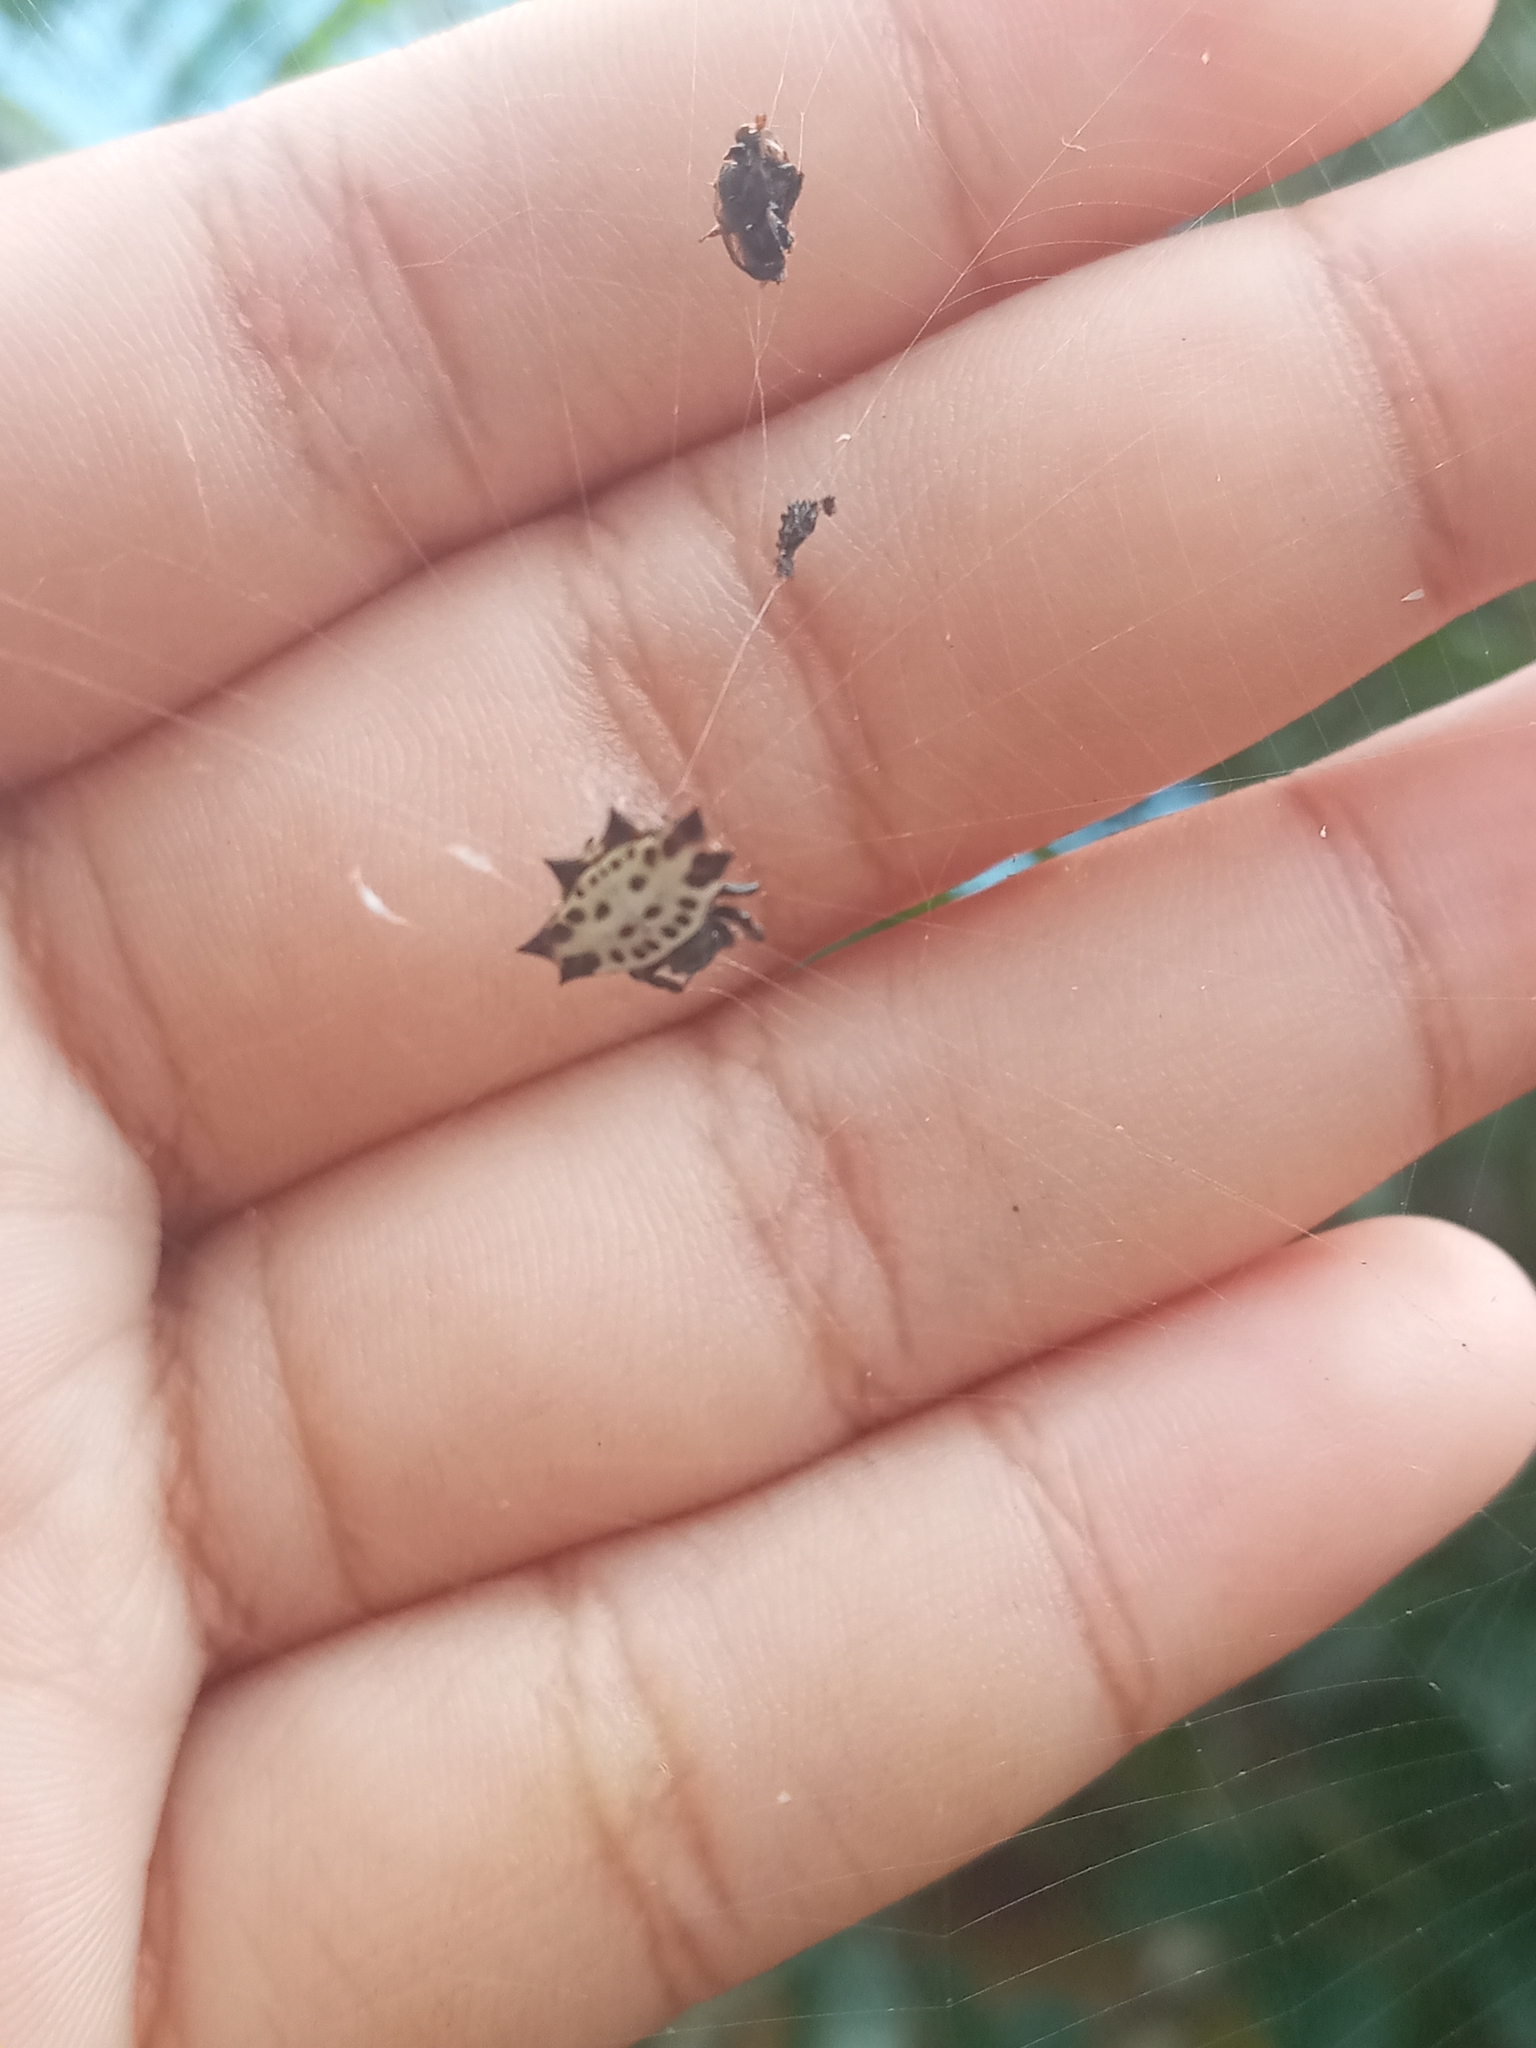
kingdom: Animalia
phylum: Arthropoda
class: Arachnida
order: Araneae
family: Araneidae
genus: Gasteracantha
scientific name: Gasteracantha cancriformis
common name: Orb weavers
